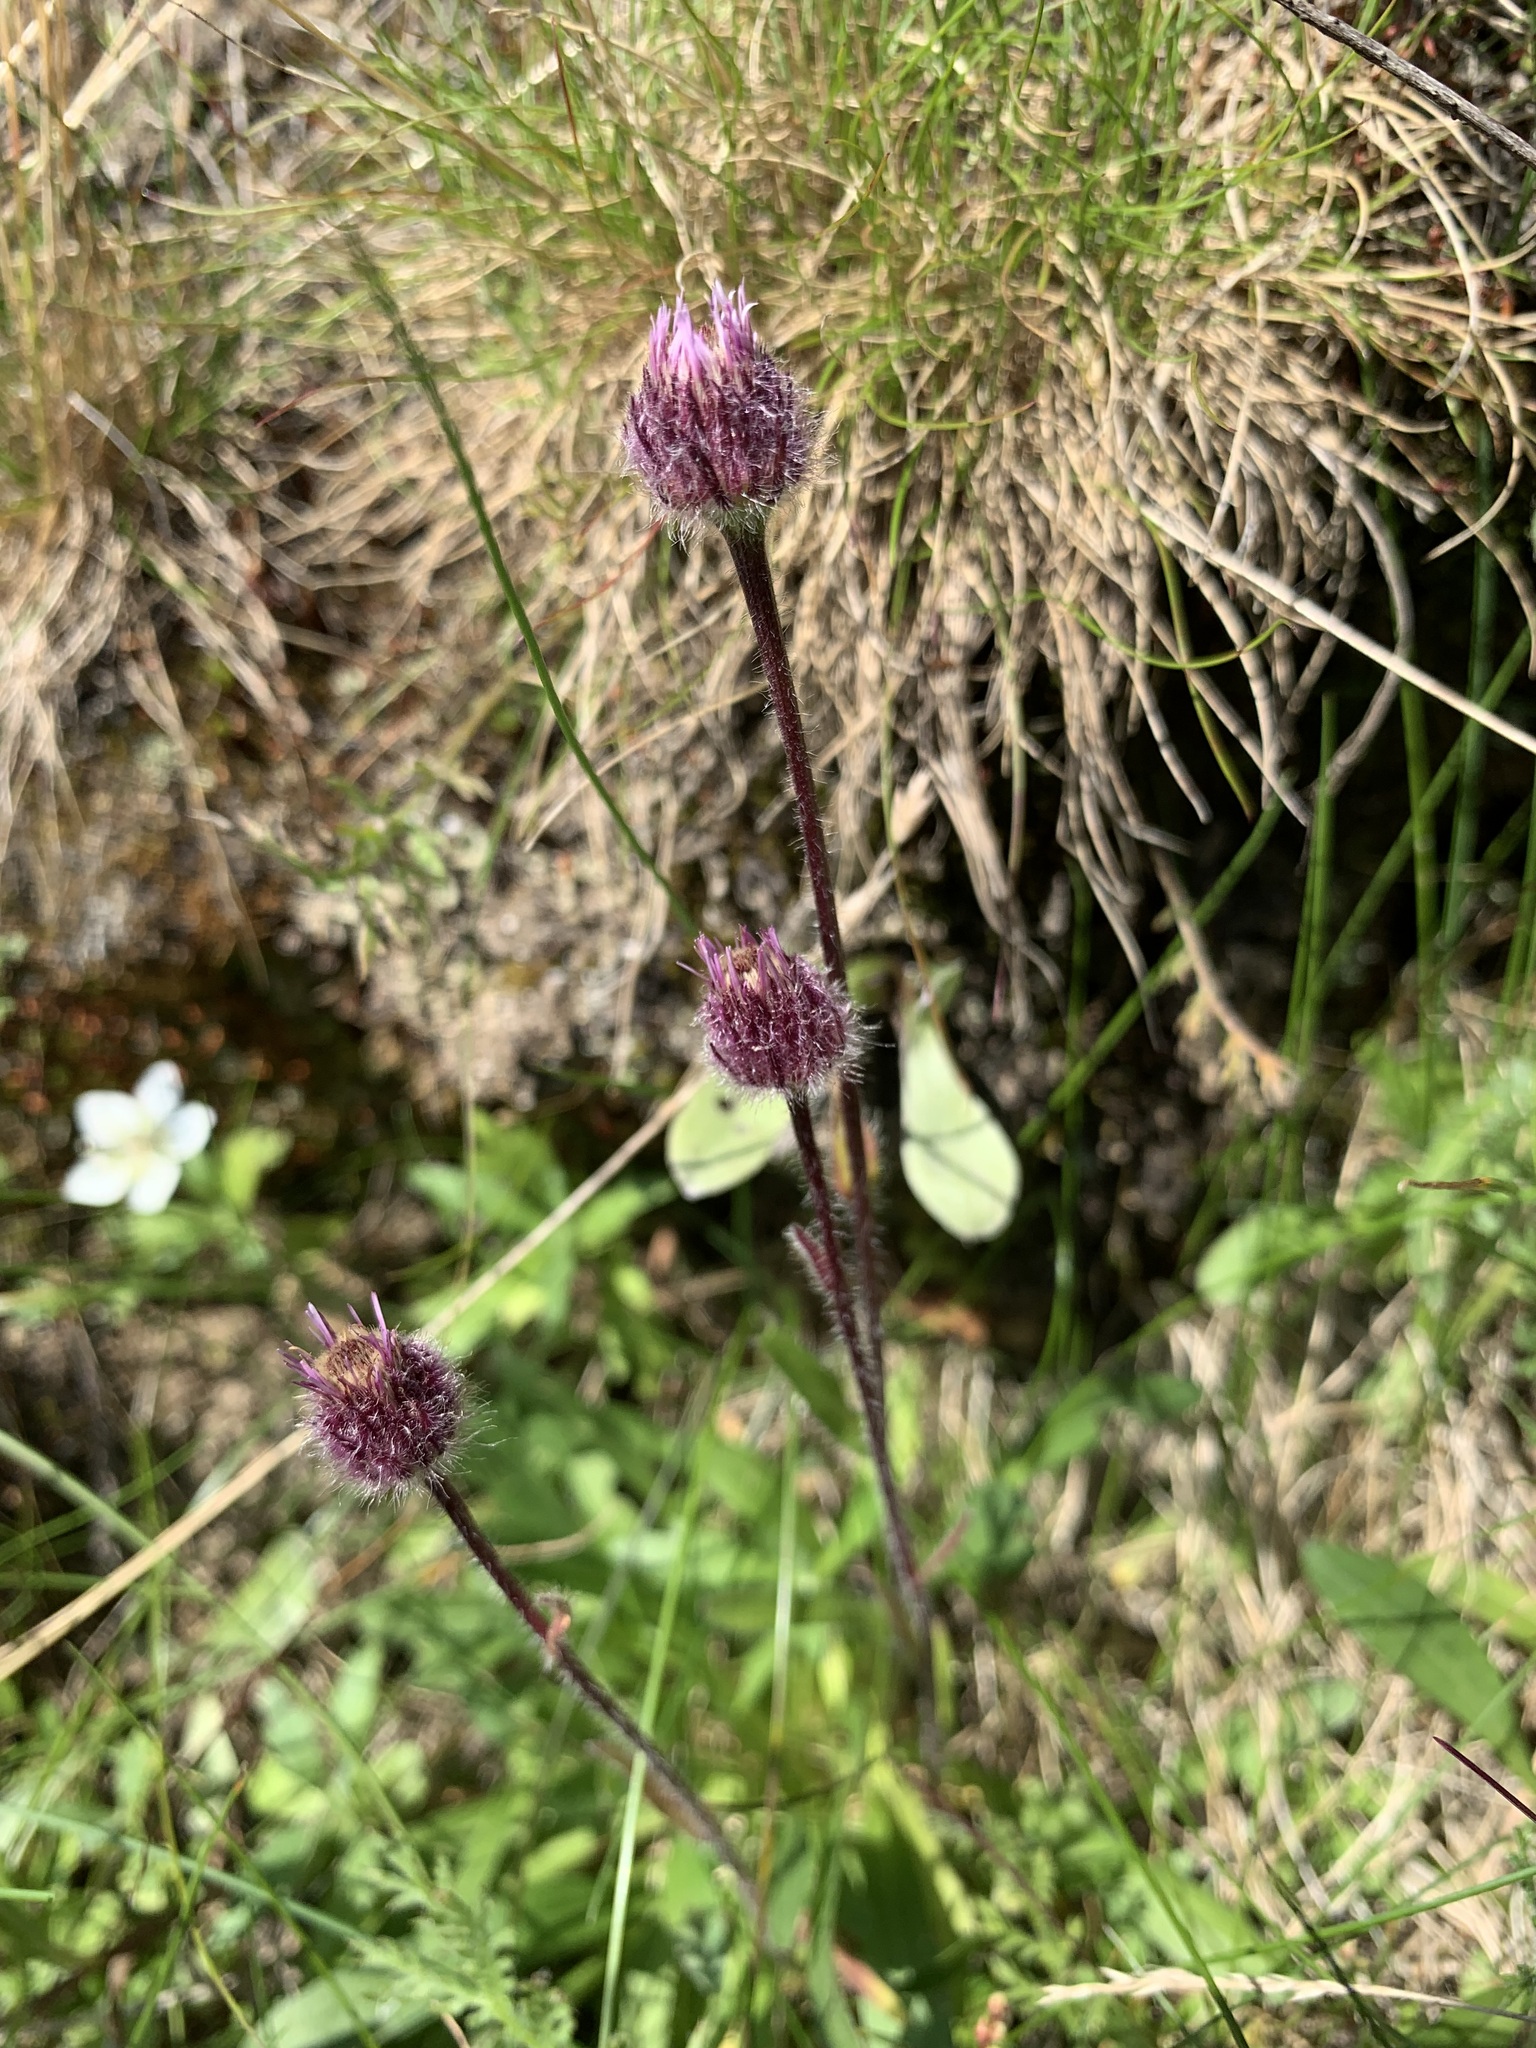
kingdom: Plantae
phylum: Tracheophyta
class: Magnoliopsida
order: Asterales
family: Asteraceae
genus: Erigeron
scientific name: Erigeron eriocephalus
